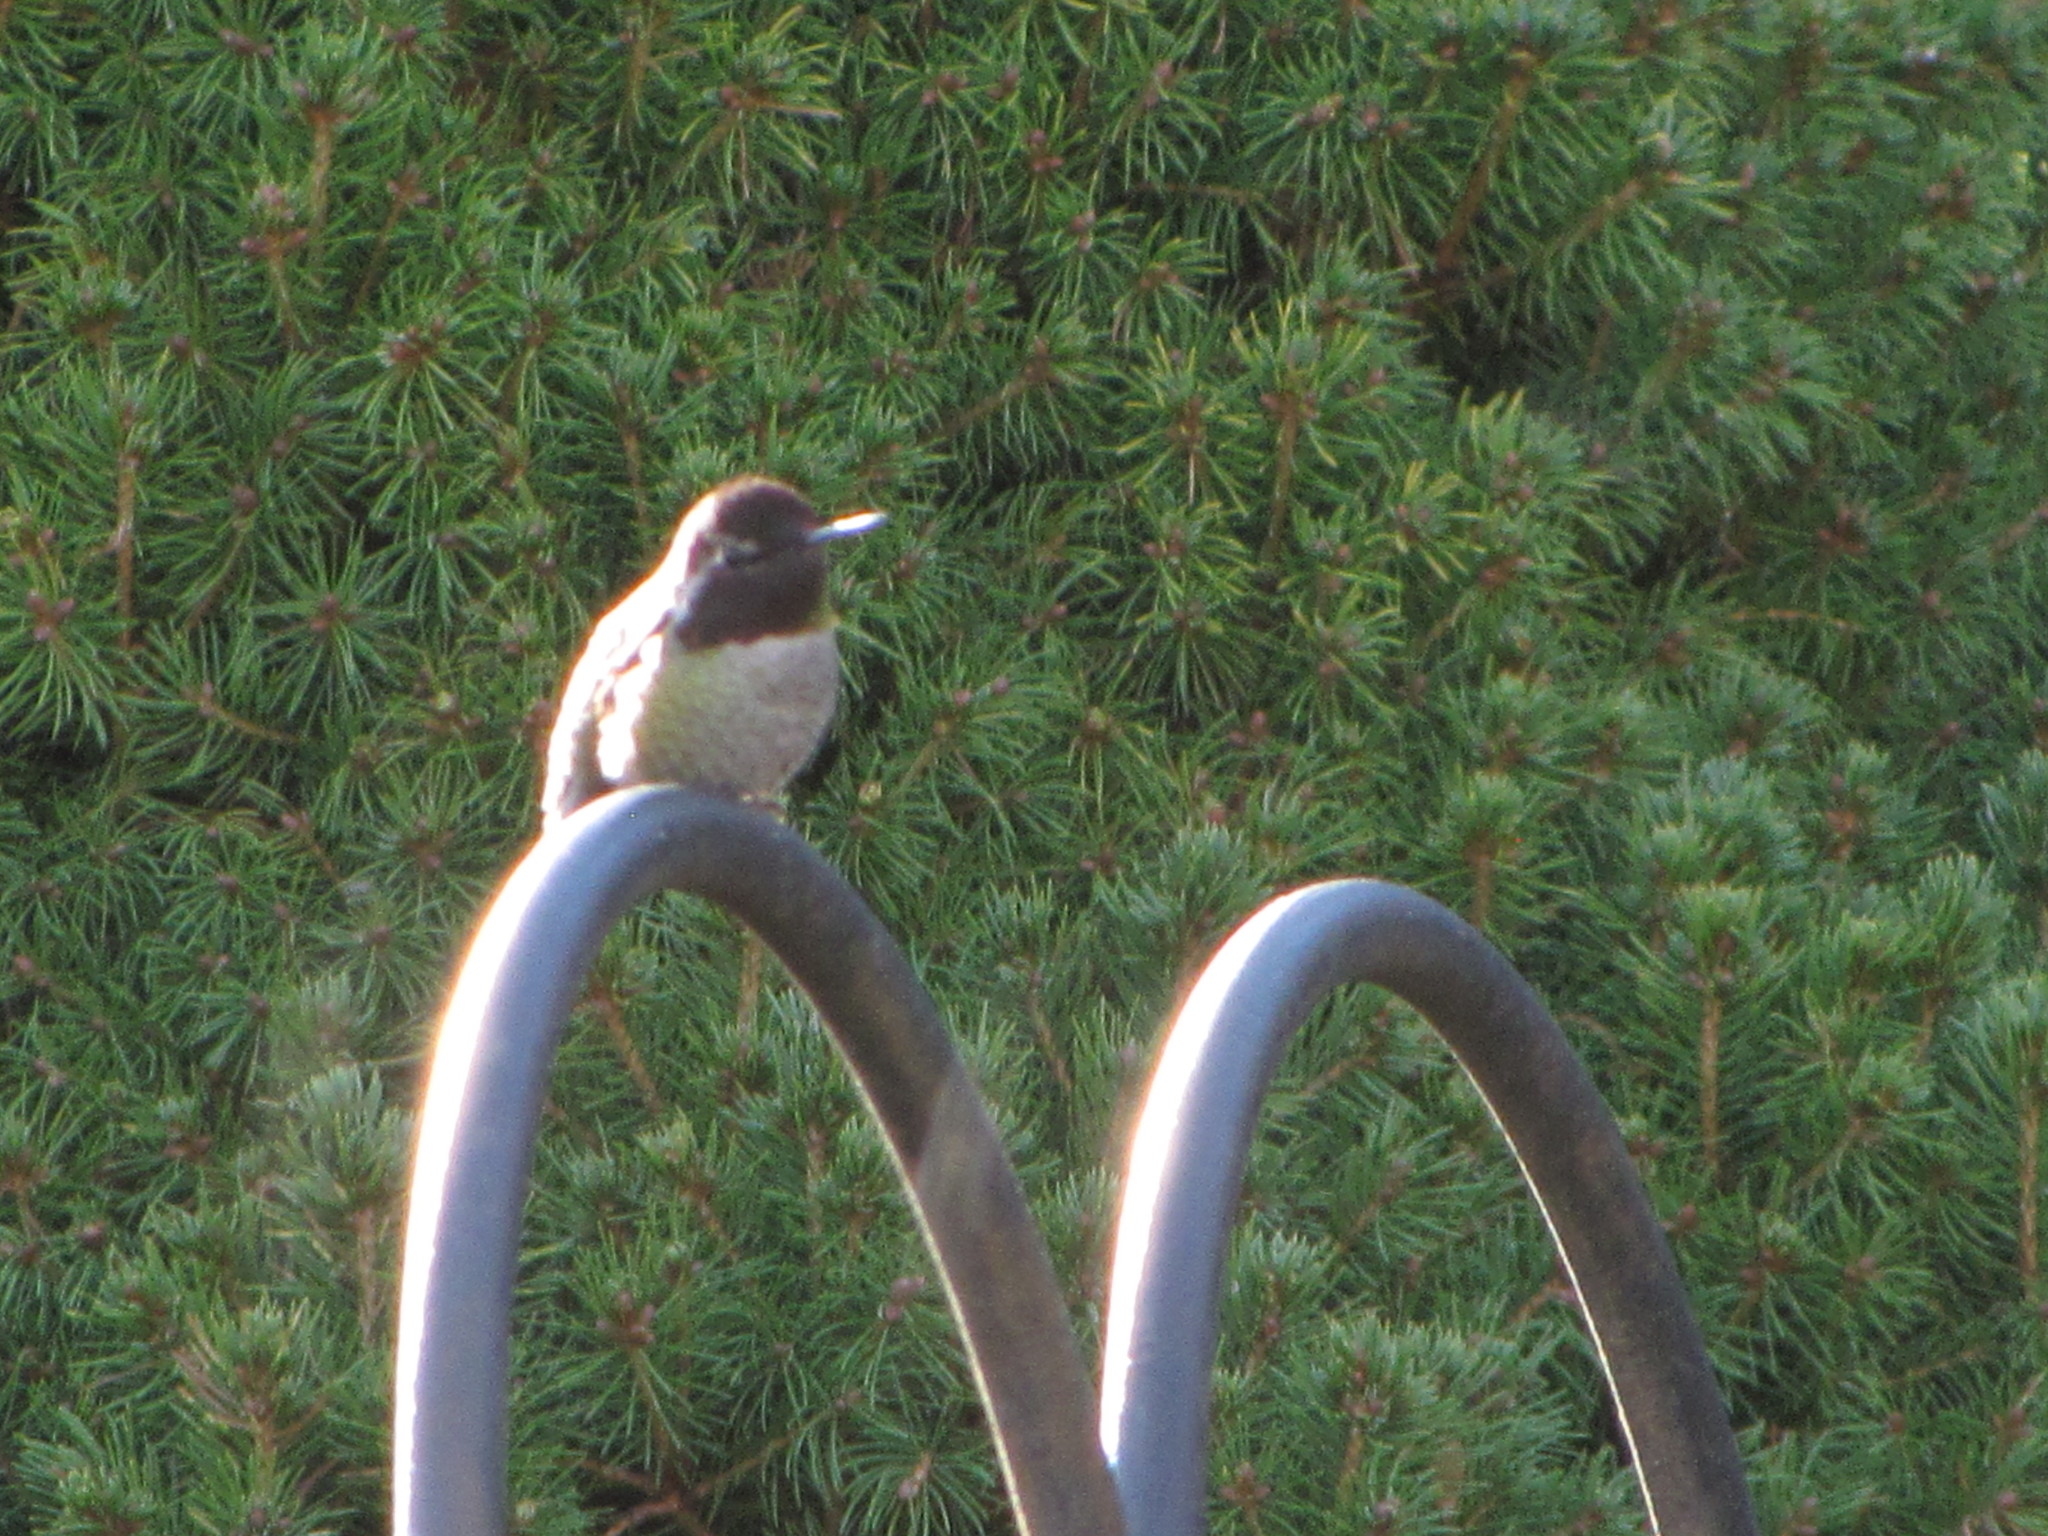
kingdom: Animalia
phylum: Chordata
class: Aves
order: Apodiformes
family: Trochilidae
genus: Calypte
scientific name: Calypte anna
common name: Anna's hummingbird
